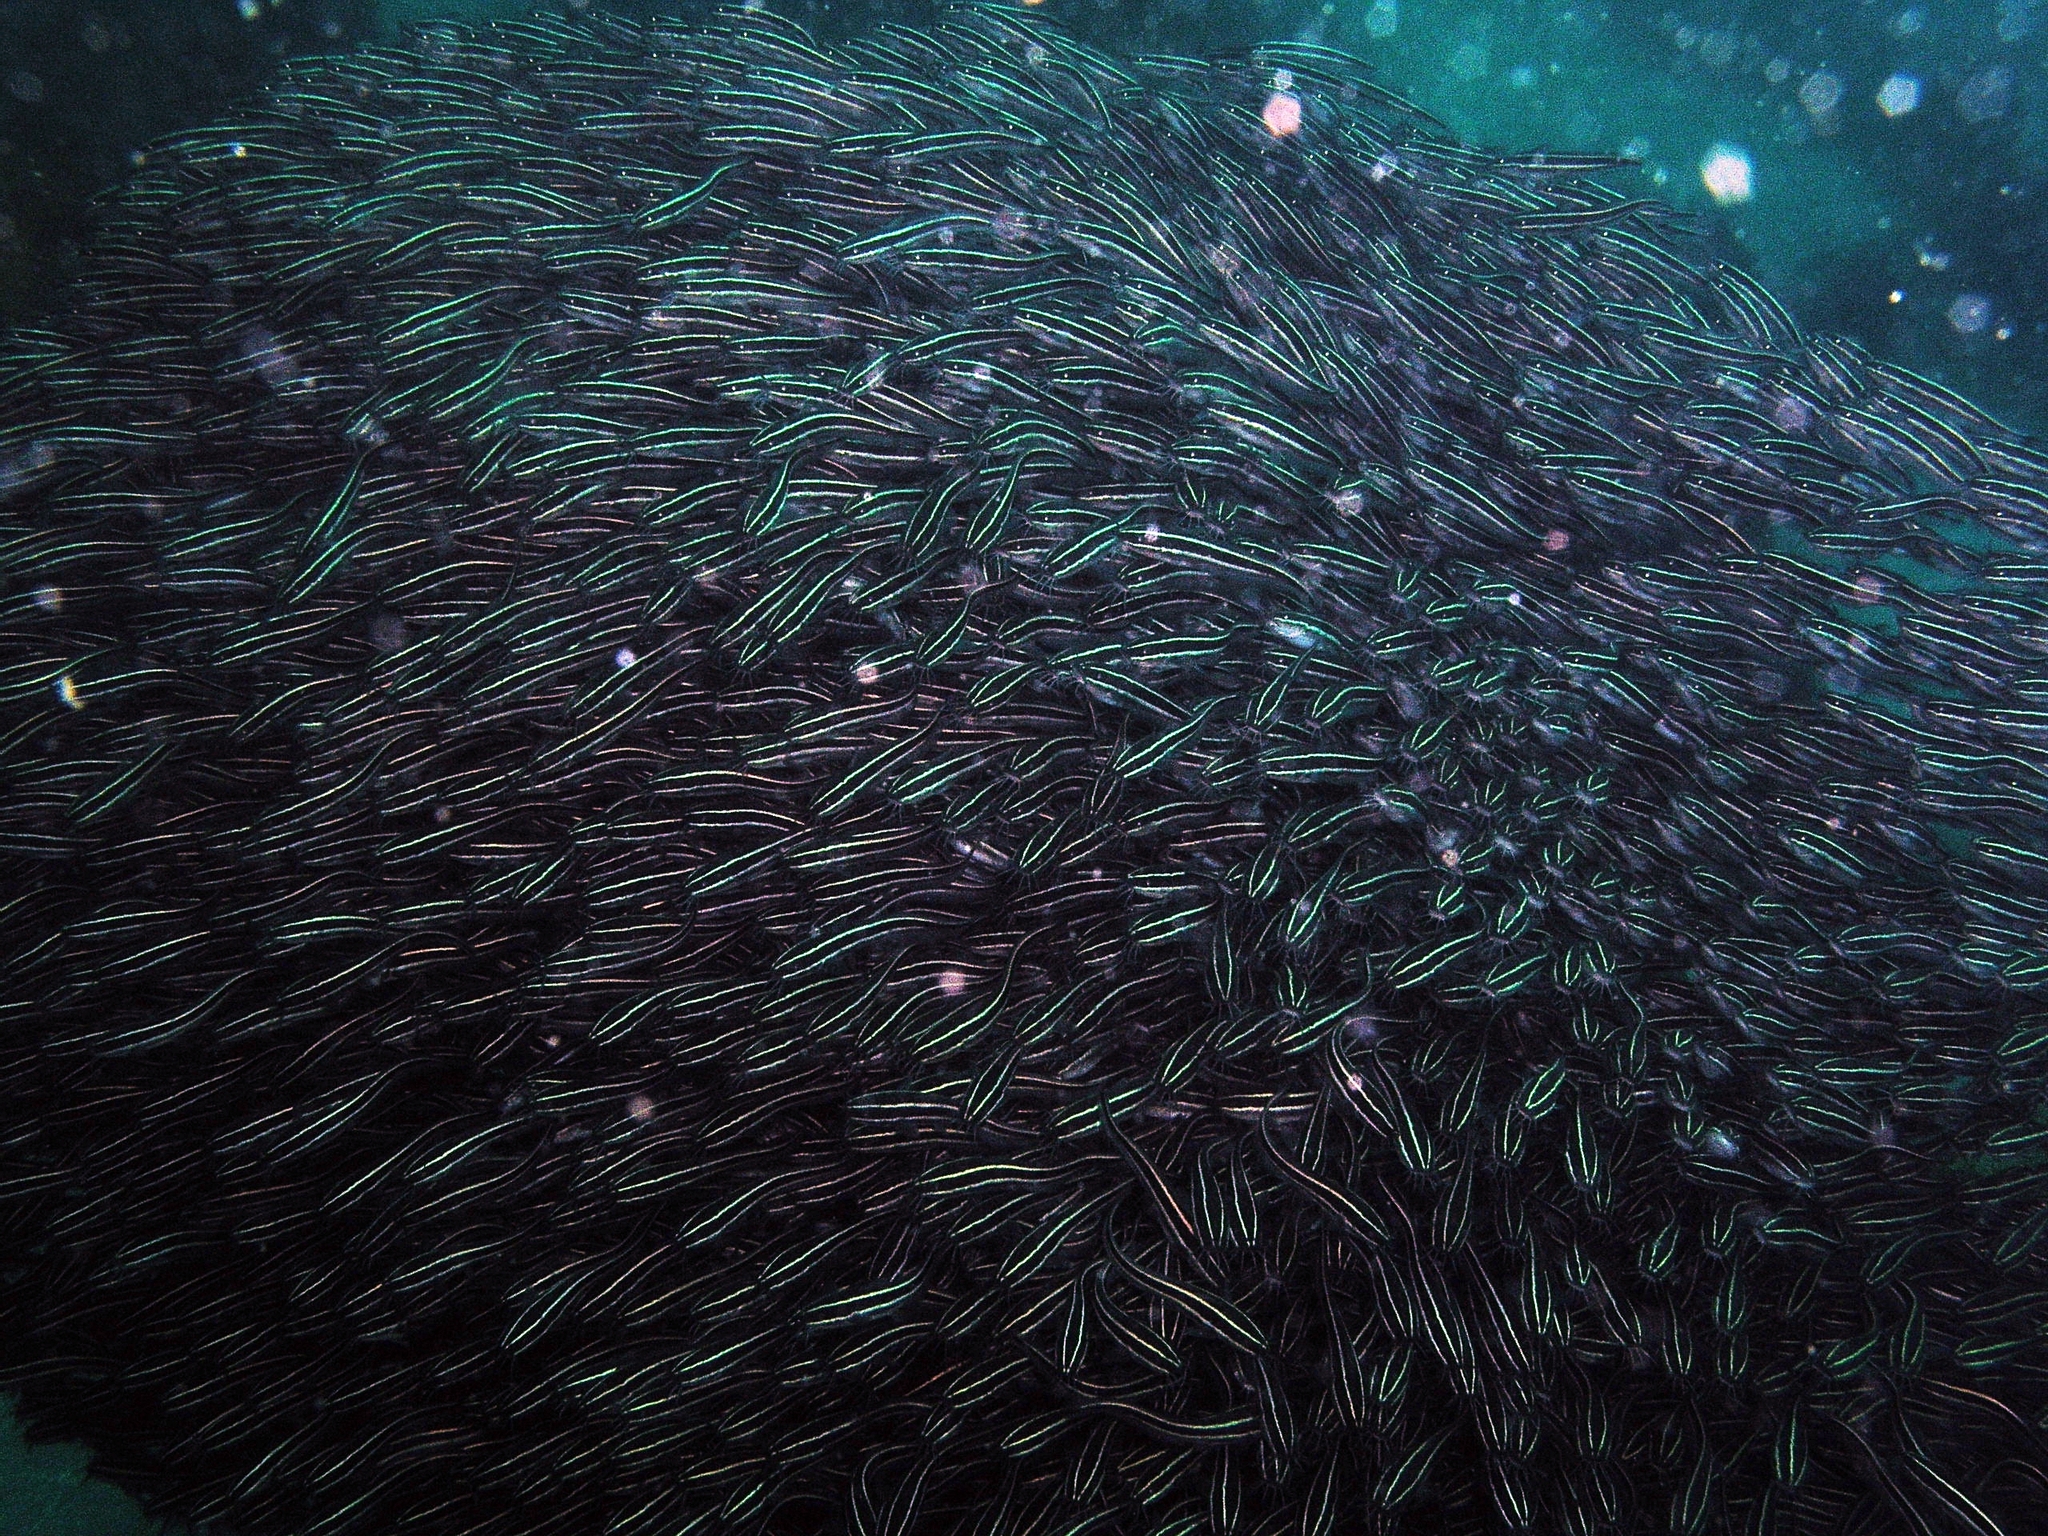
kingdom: Animalia
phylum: Chordata
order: Siluriformes
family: Plotosidae
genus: Plotosus
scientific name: Plotosus lineatus
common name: Striped eel catfish
